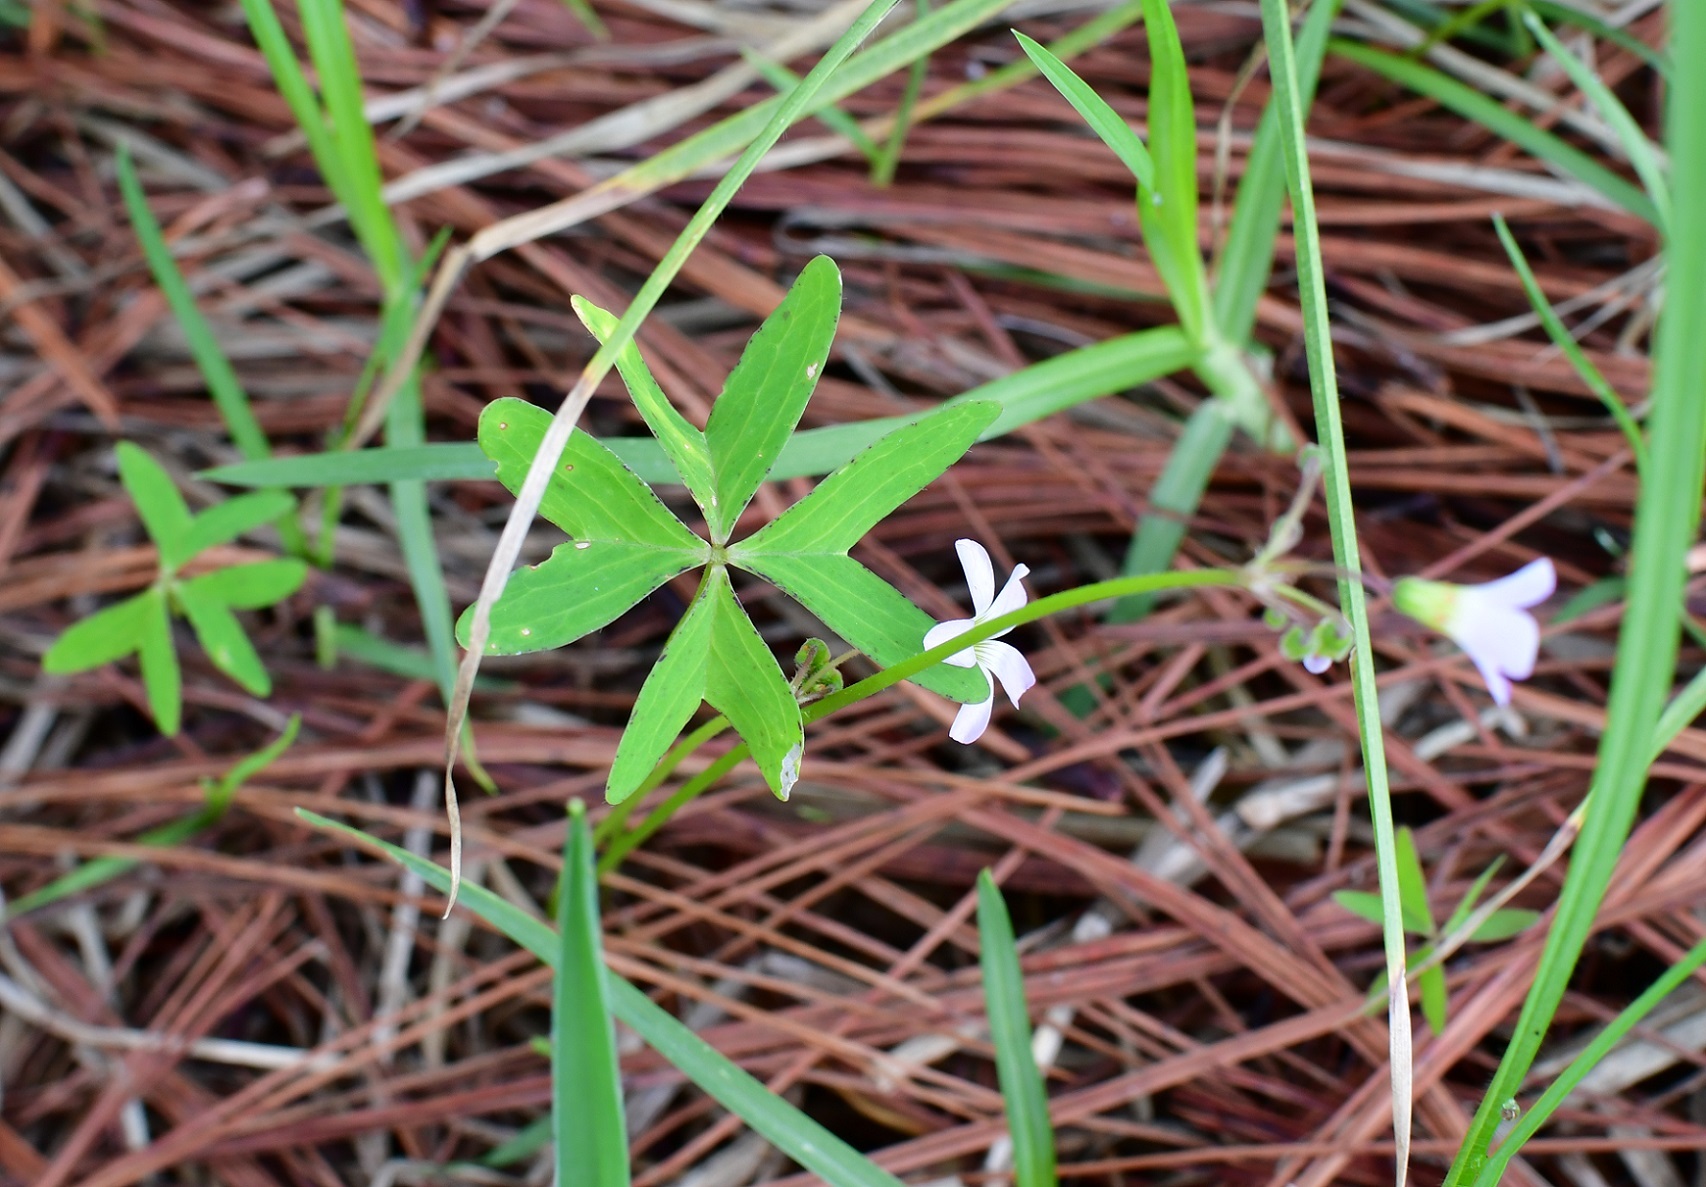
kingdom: Plantae
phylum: Tracheophyta
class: Magnoliopsida
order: Oxalidales
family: Oxalidaceae
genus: Oxalis
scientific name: Oxalis tetraphylla
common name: Four-leaved pink-sorrel
